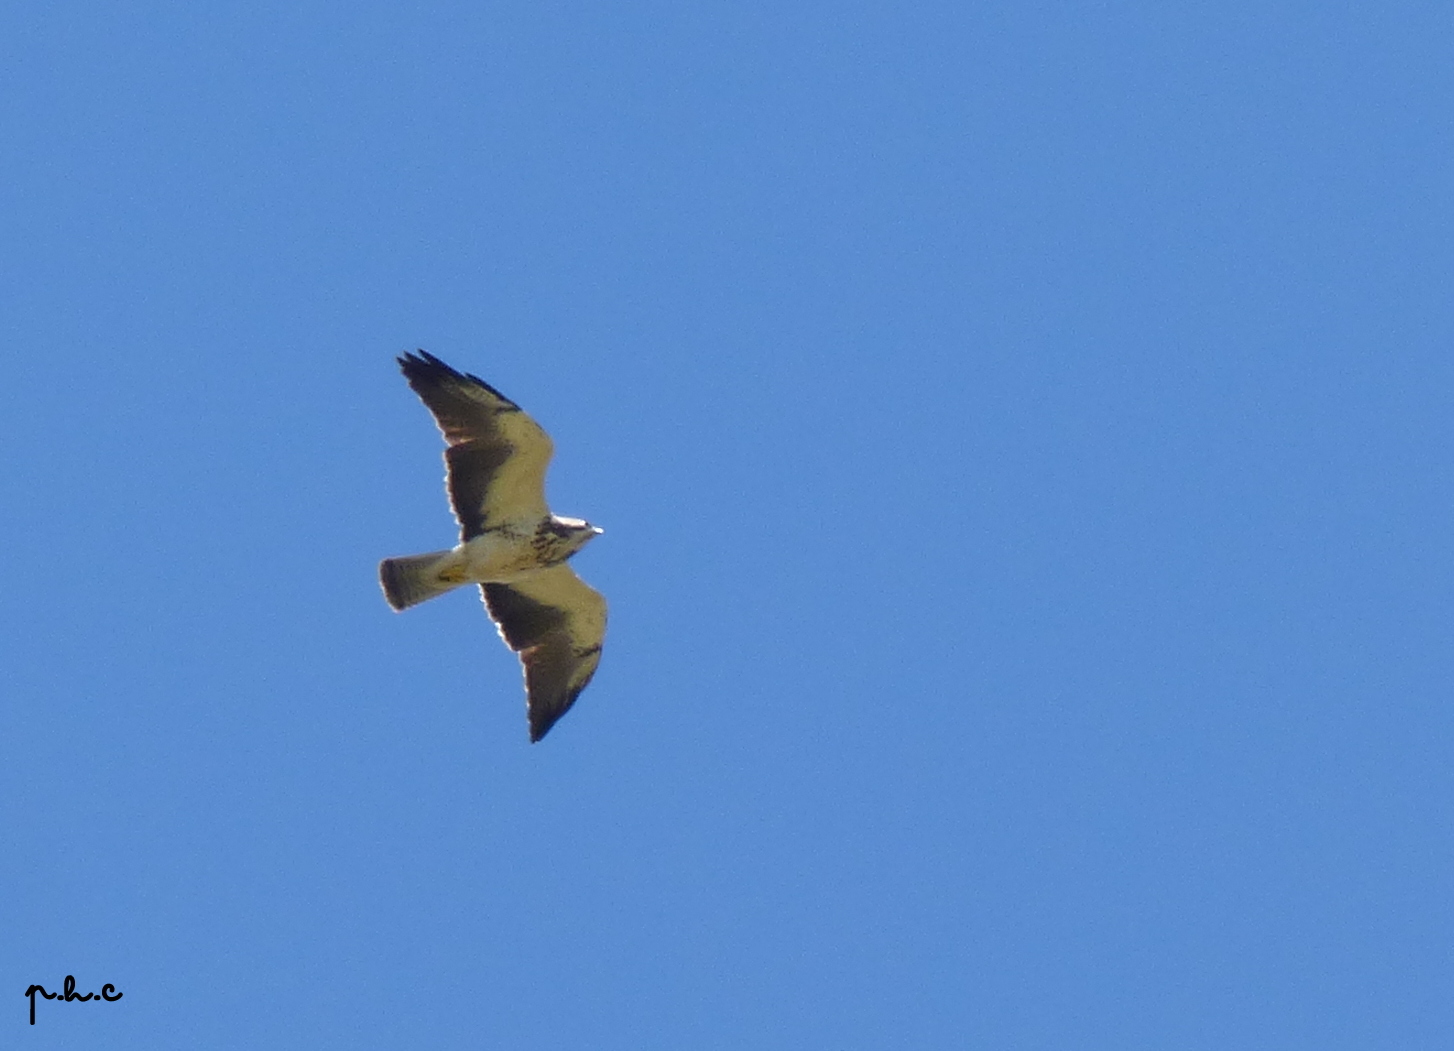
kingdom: Animalia
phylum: Chordata
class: Aves
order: Accipitriformes
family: Accipitridae
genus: Buteo
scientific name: Buteo swainsoni
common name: Swainson's hawk
